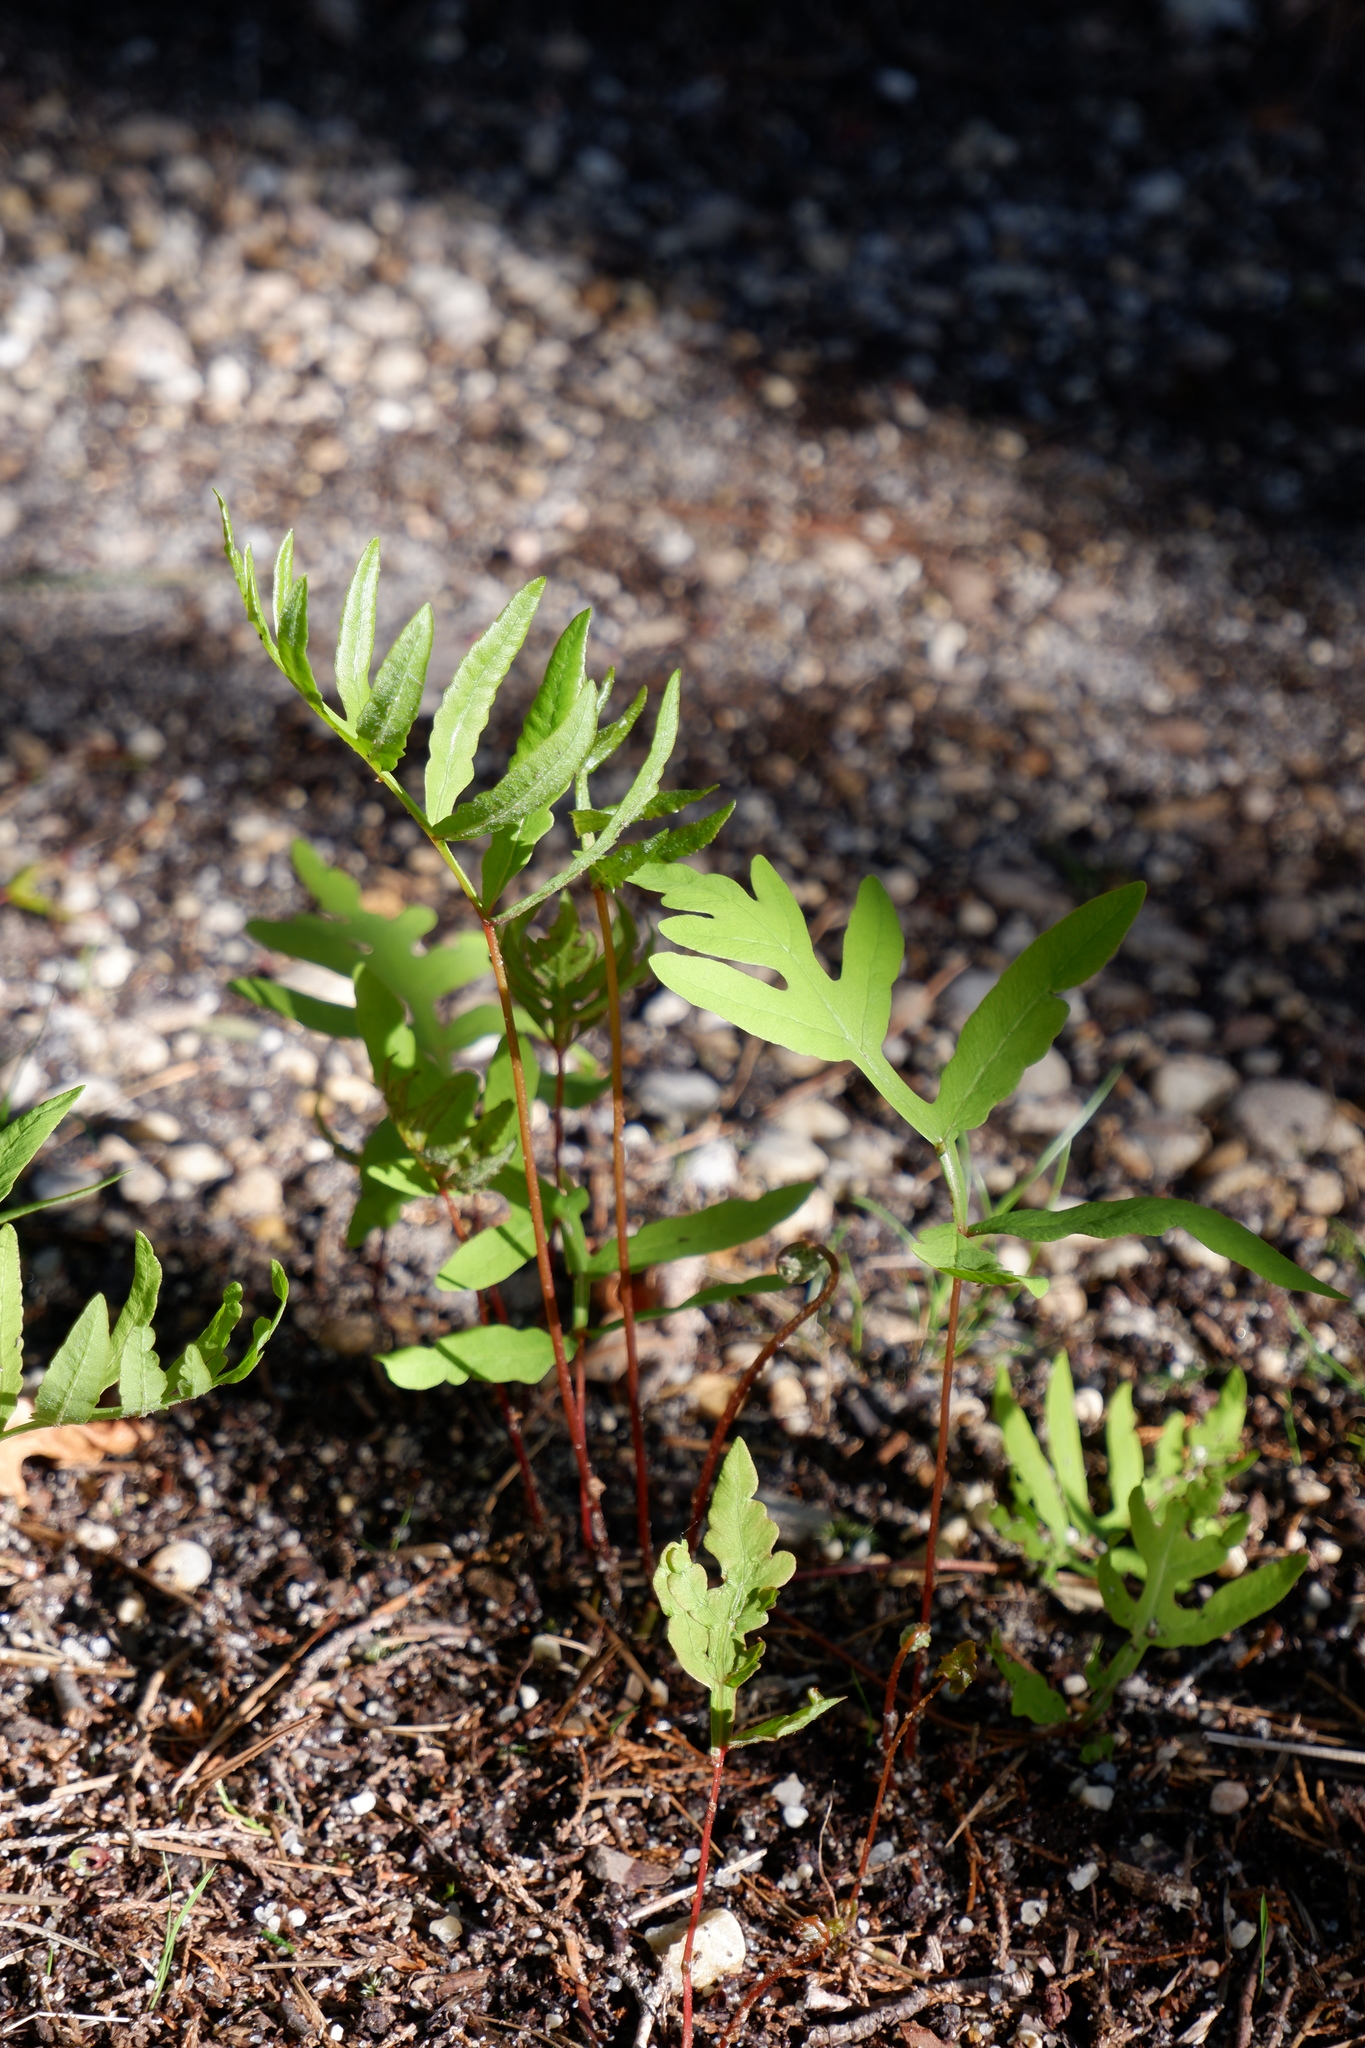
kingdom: Plantae
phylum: Tracheophyta
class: Polypodiopsida
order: Polypodiales
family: Onocleaceae
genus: Onoclea
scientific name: Onoclea sensibilis
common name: Sensitive fern
